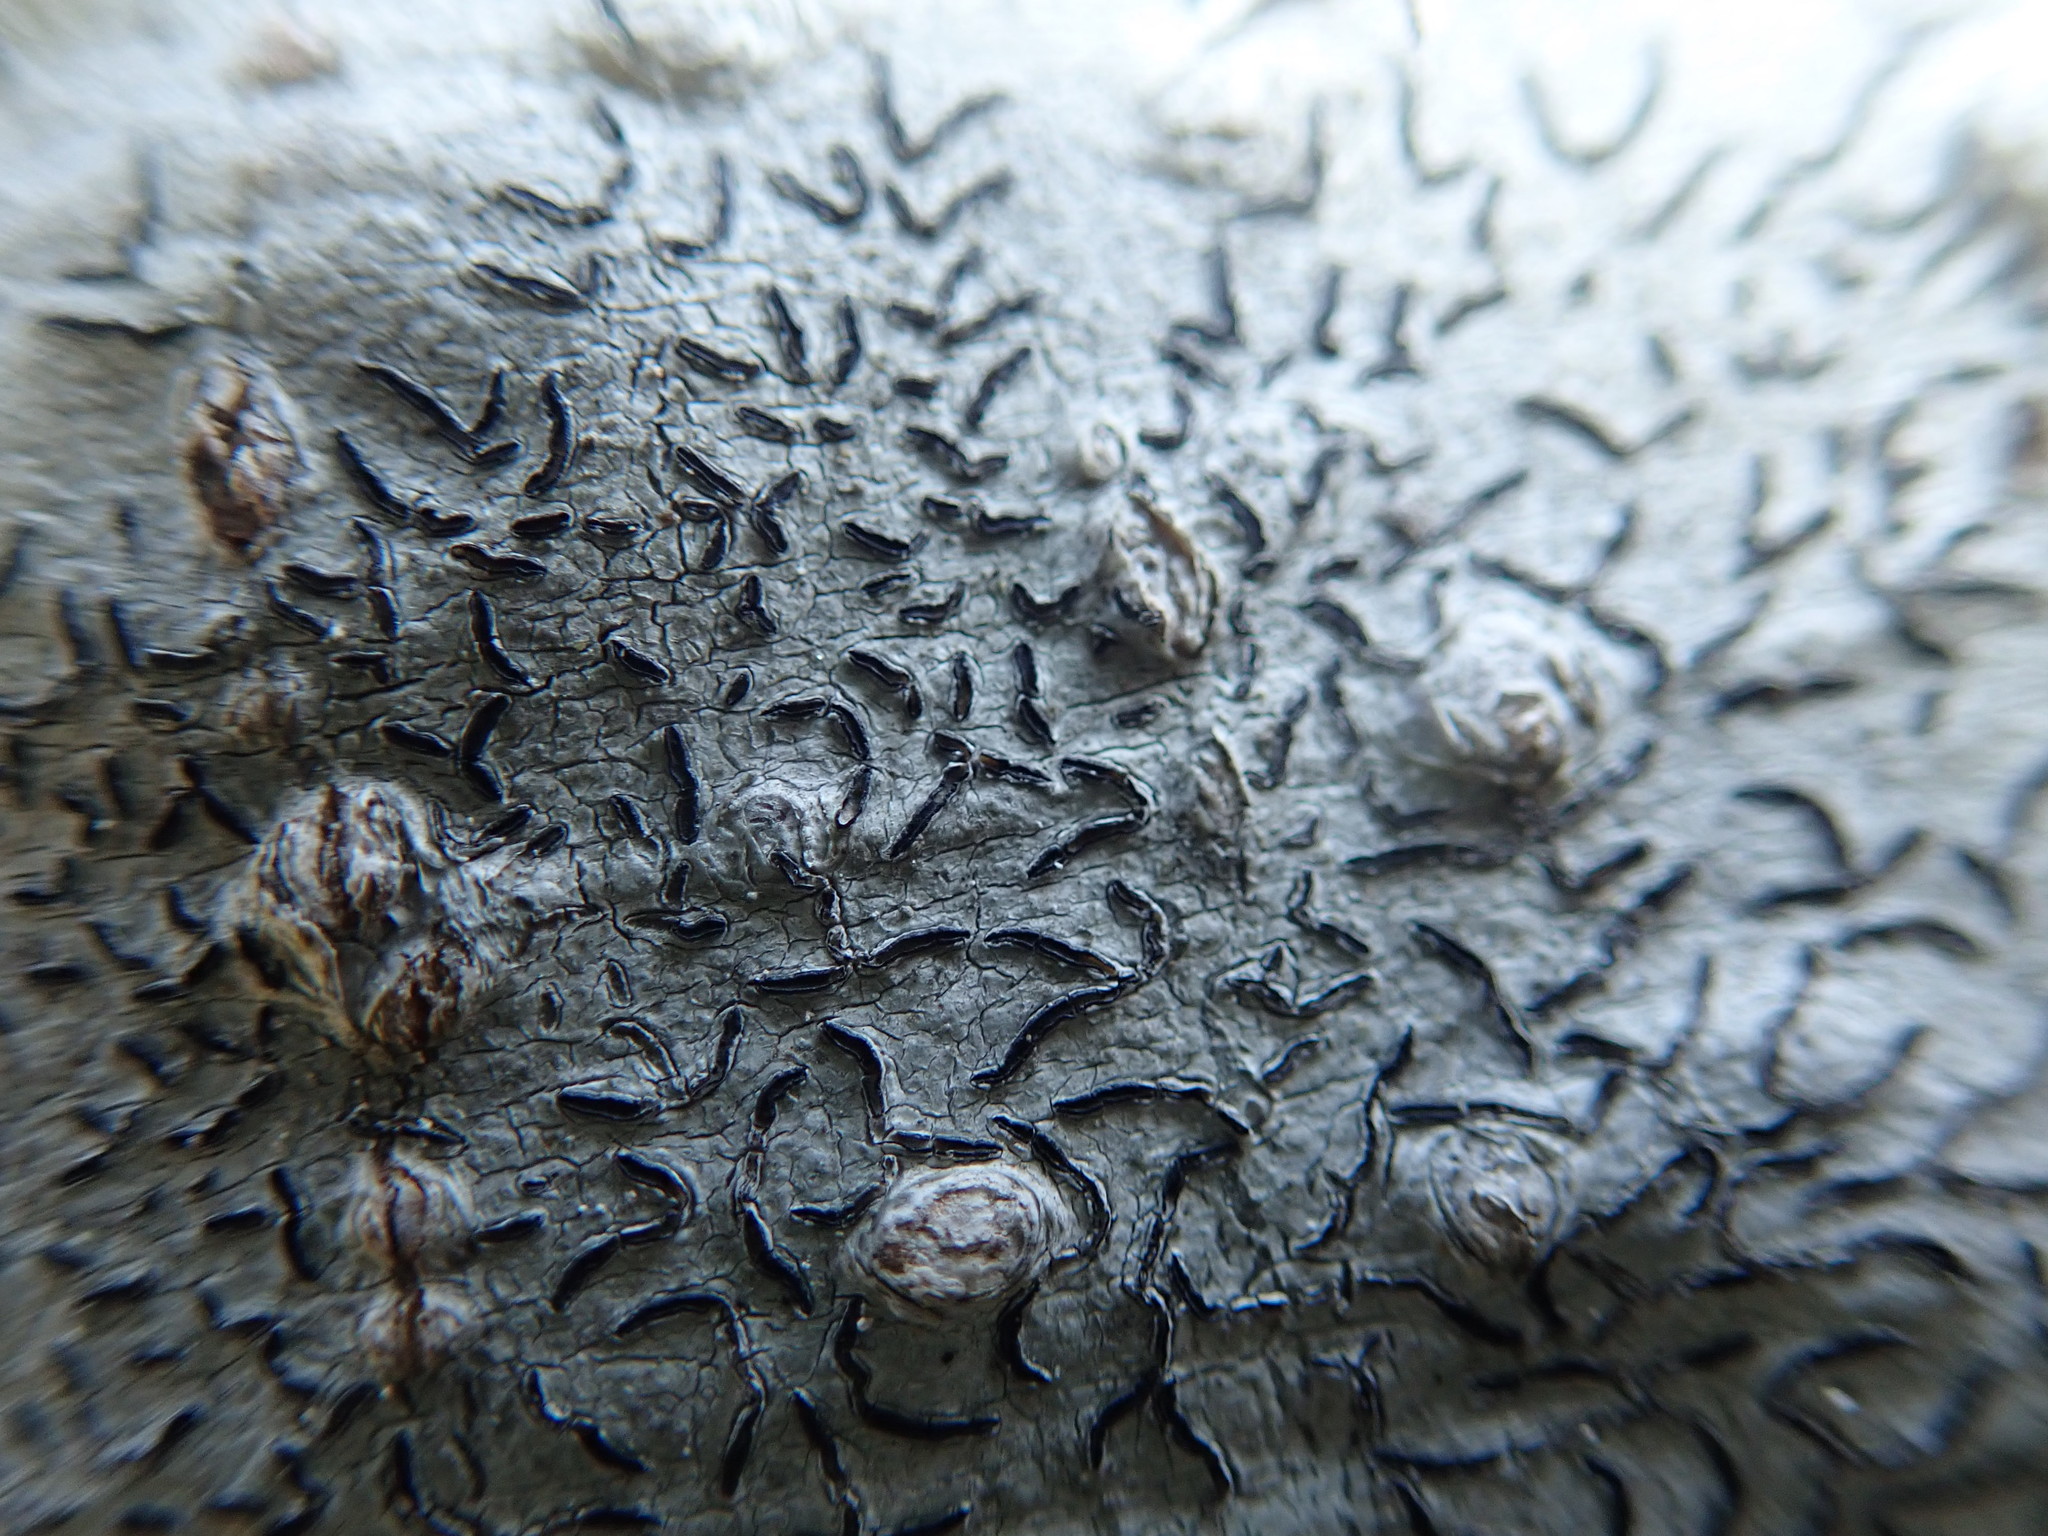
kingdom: Fungi
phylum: Ascomycota
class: Lecanoromycetes
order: Ostropales
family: Graphidaceae
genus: Graphis
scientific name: Graphis scripta
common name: Script lichen
